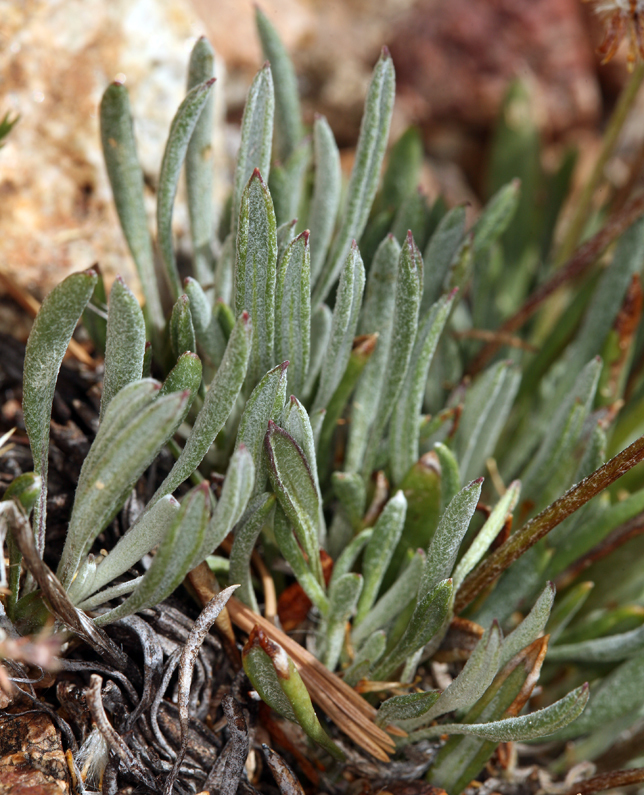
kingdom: Plantae
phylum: Tracheophyta
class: Magnoliopsida
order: Asterales
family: Asteraceae
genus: Packera
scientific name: Packera werneriifolia
